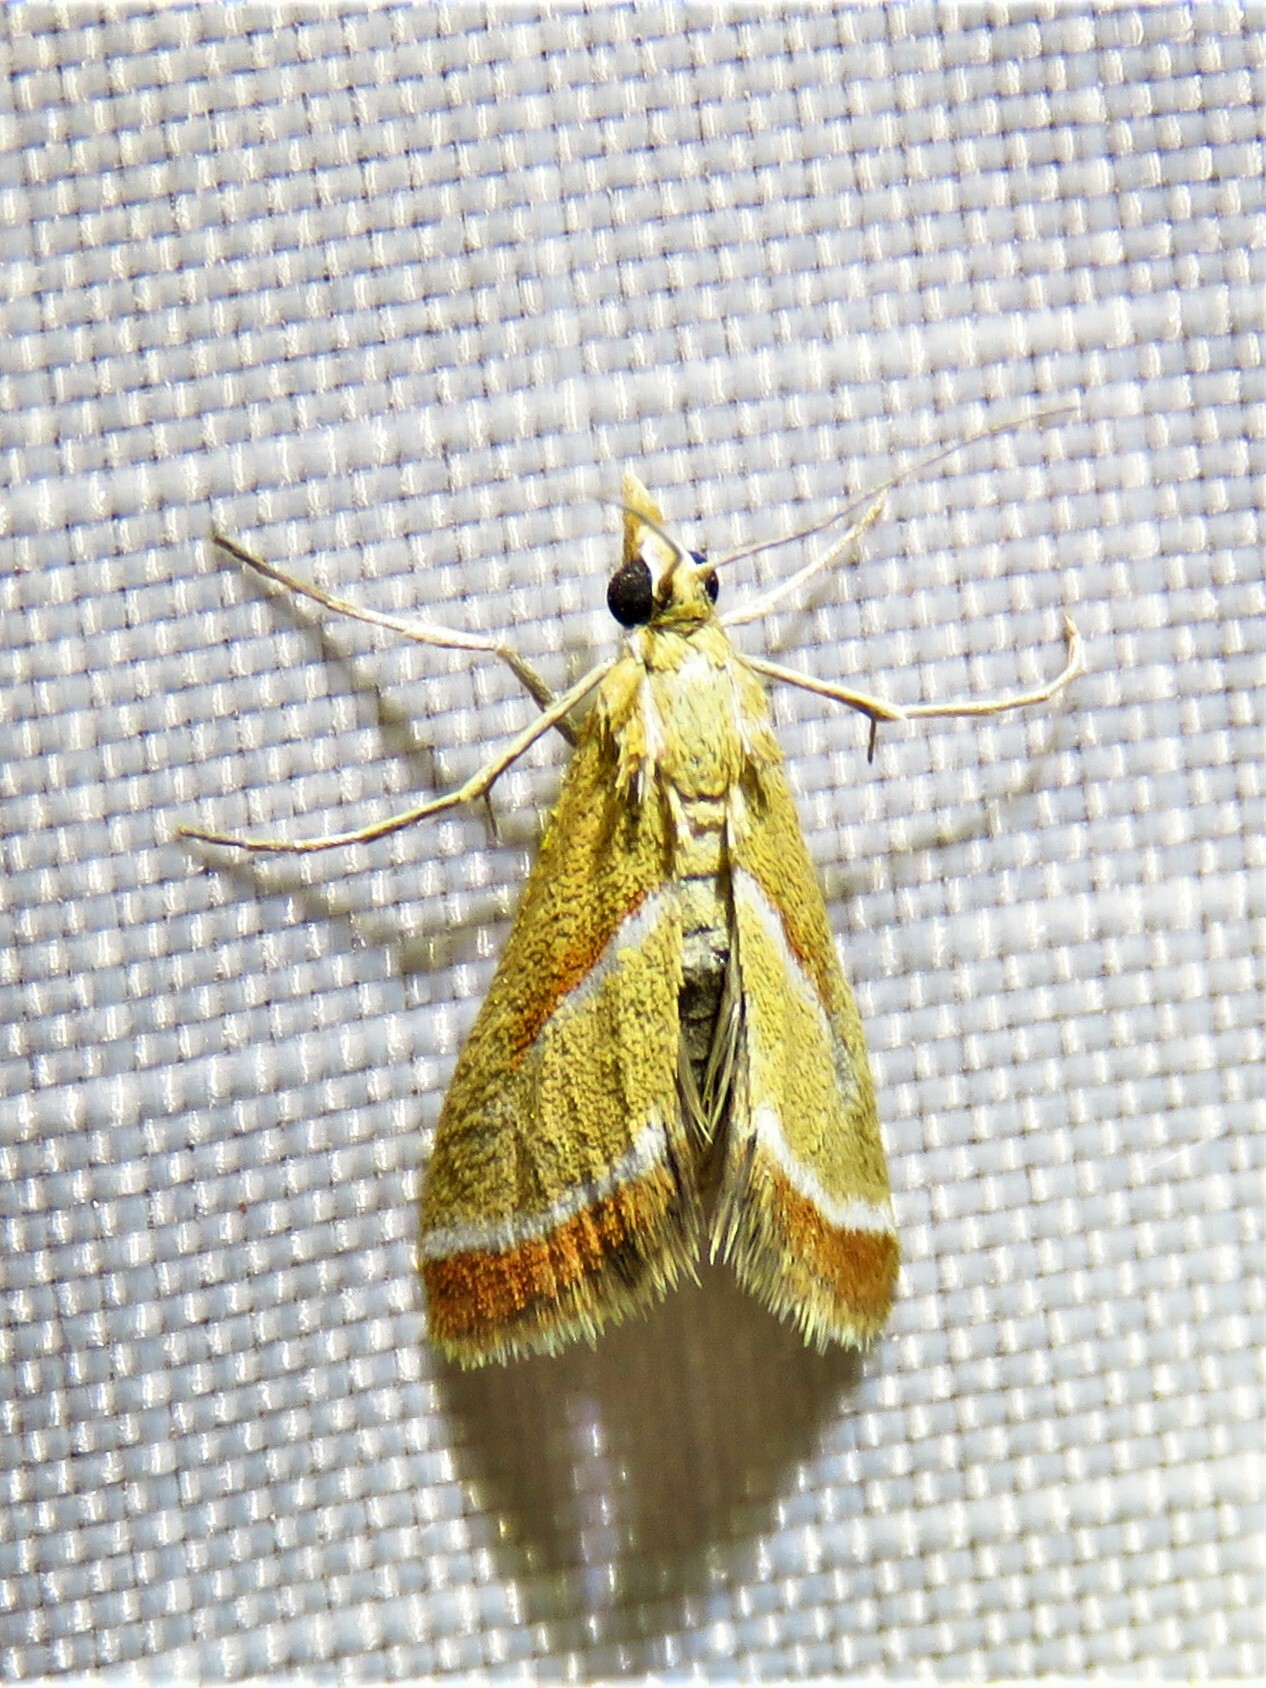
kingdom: Animalia
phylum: Arthropoda
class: Insecta
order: Lepidoptera
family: Crambidae
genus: Rhodocantha
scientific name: Rhodocantha diagonalis
